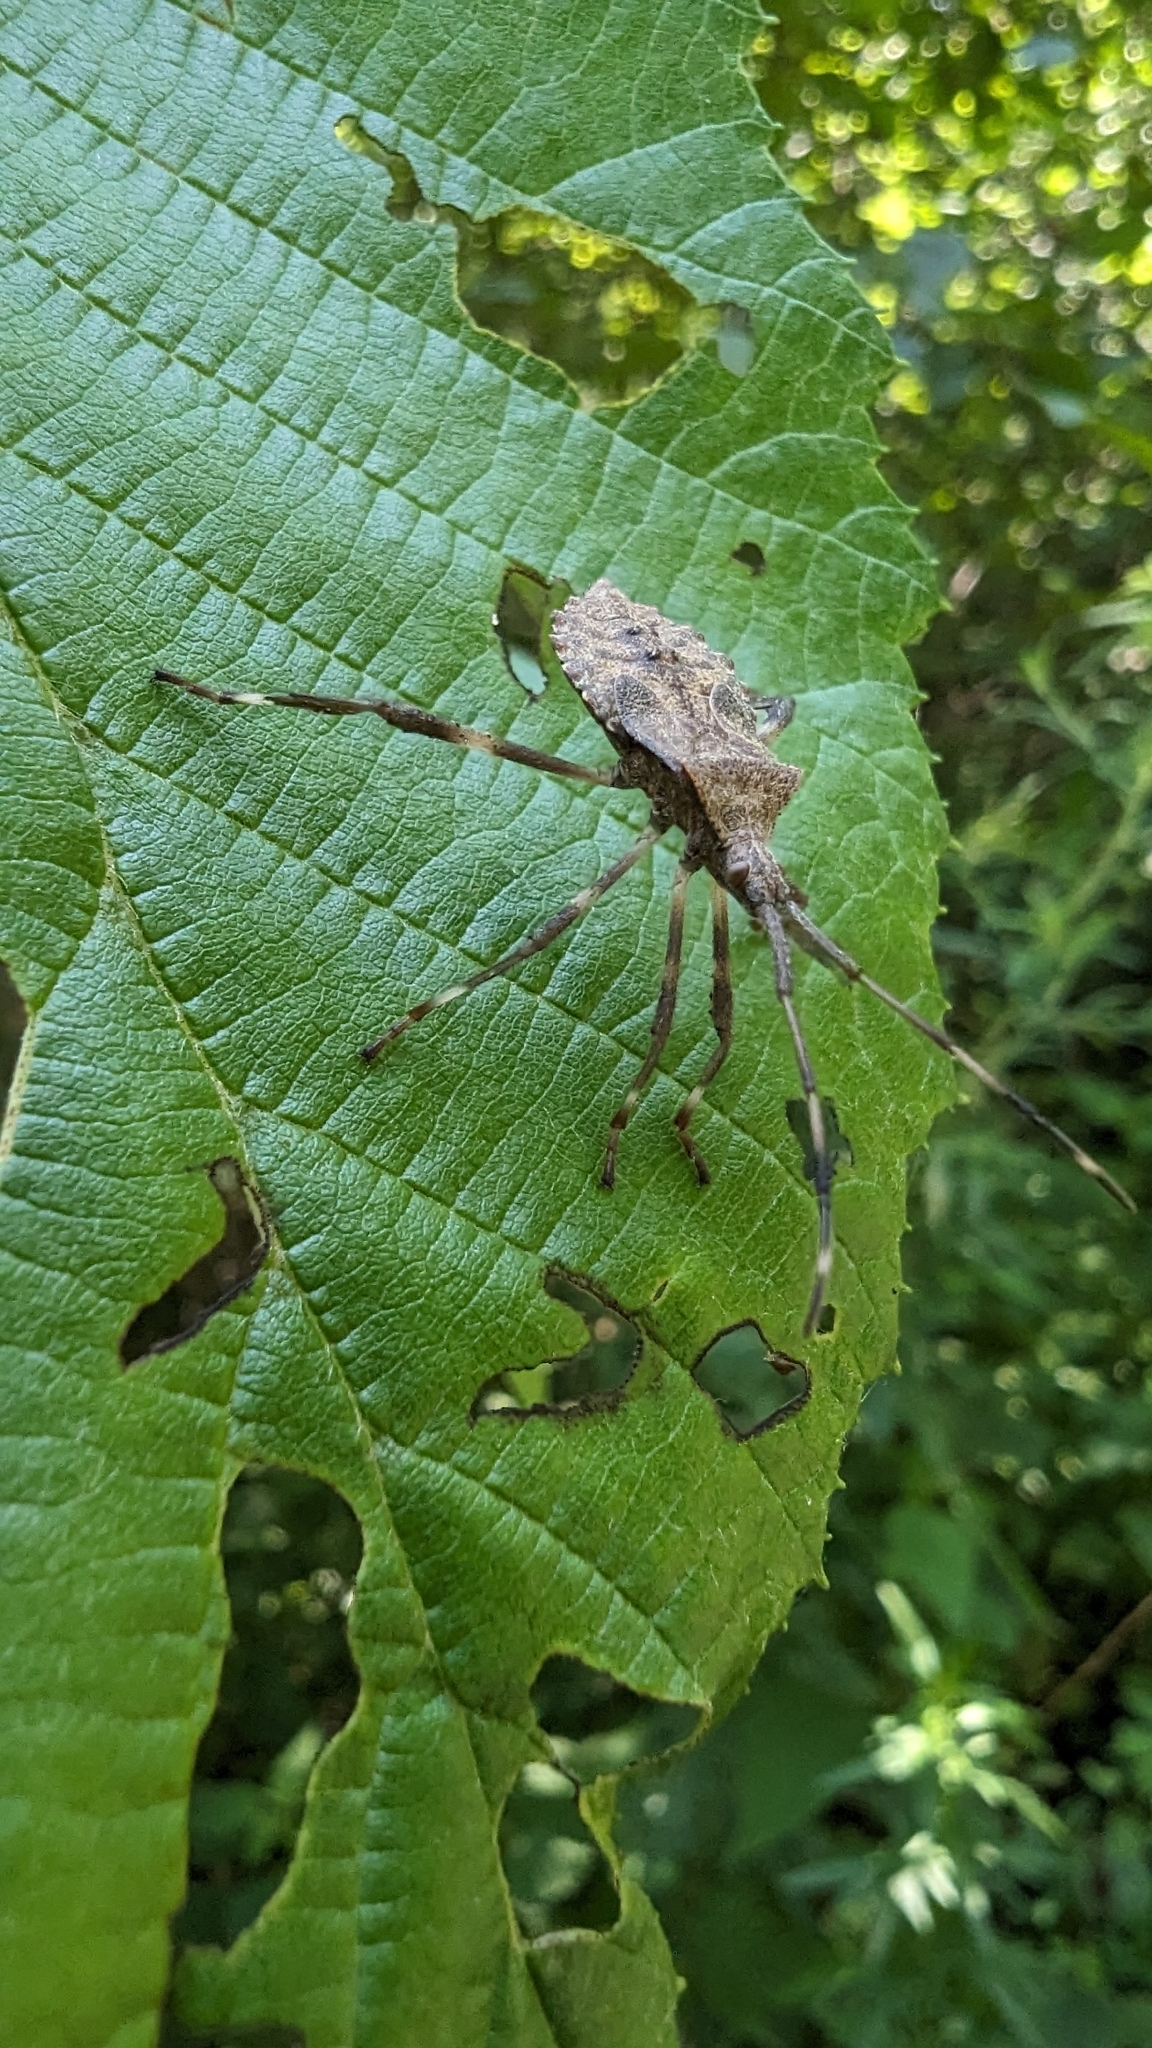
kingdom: Animalia
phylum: Arthropoda
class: Insecta
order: Hemiptera
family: Coreidae
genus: Acanthocephala
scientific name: Acanthocephala terminalis
